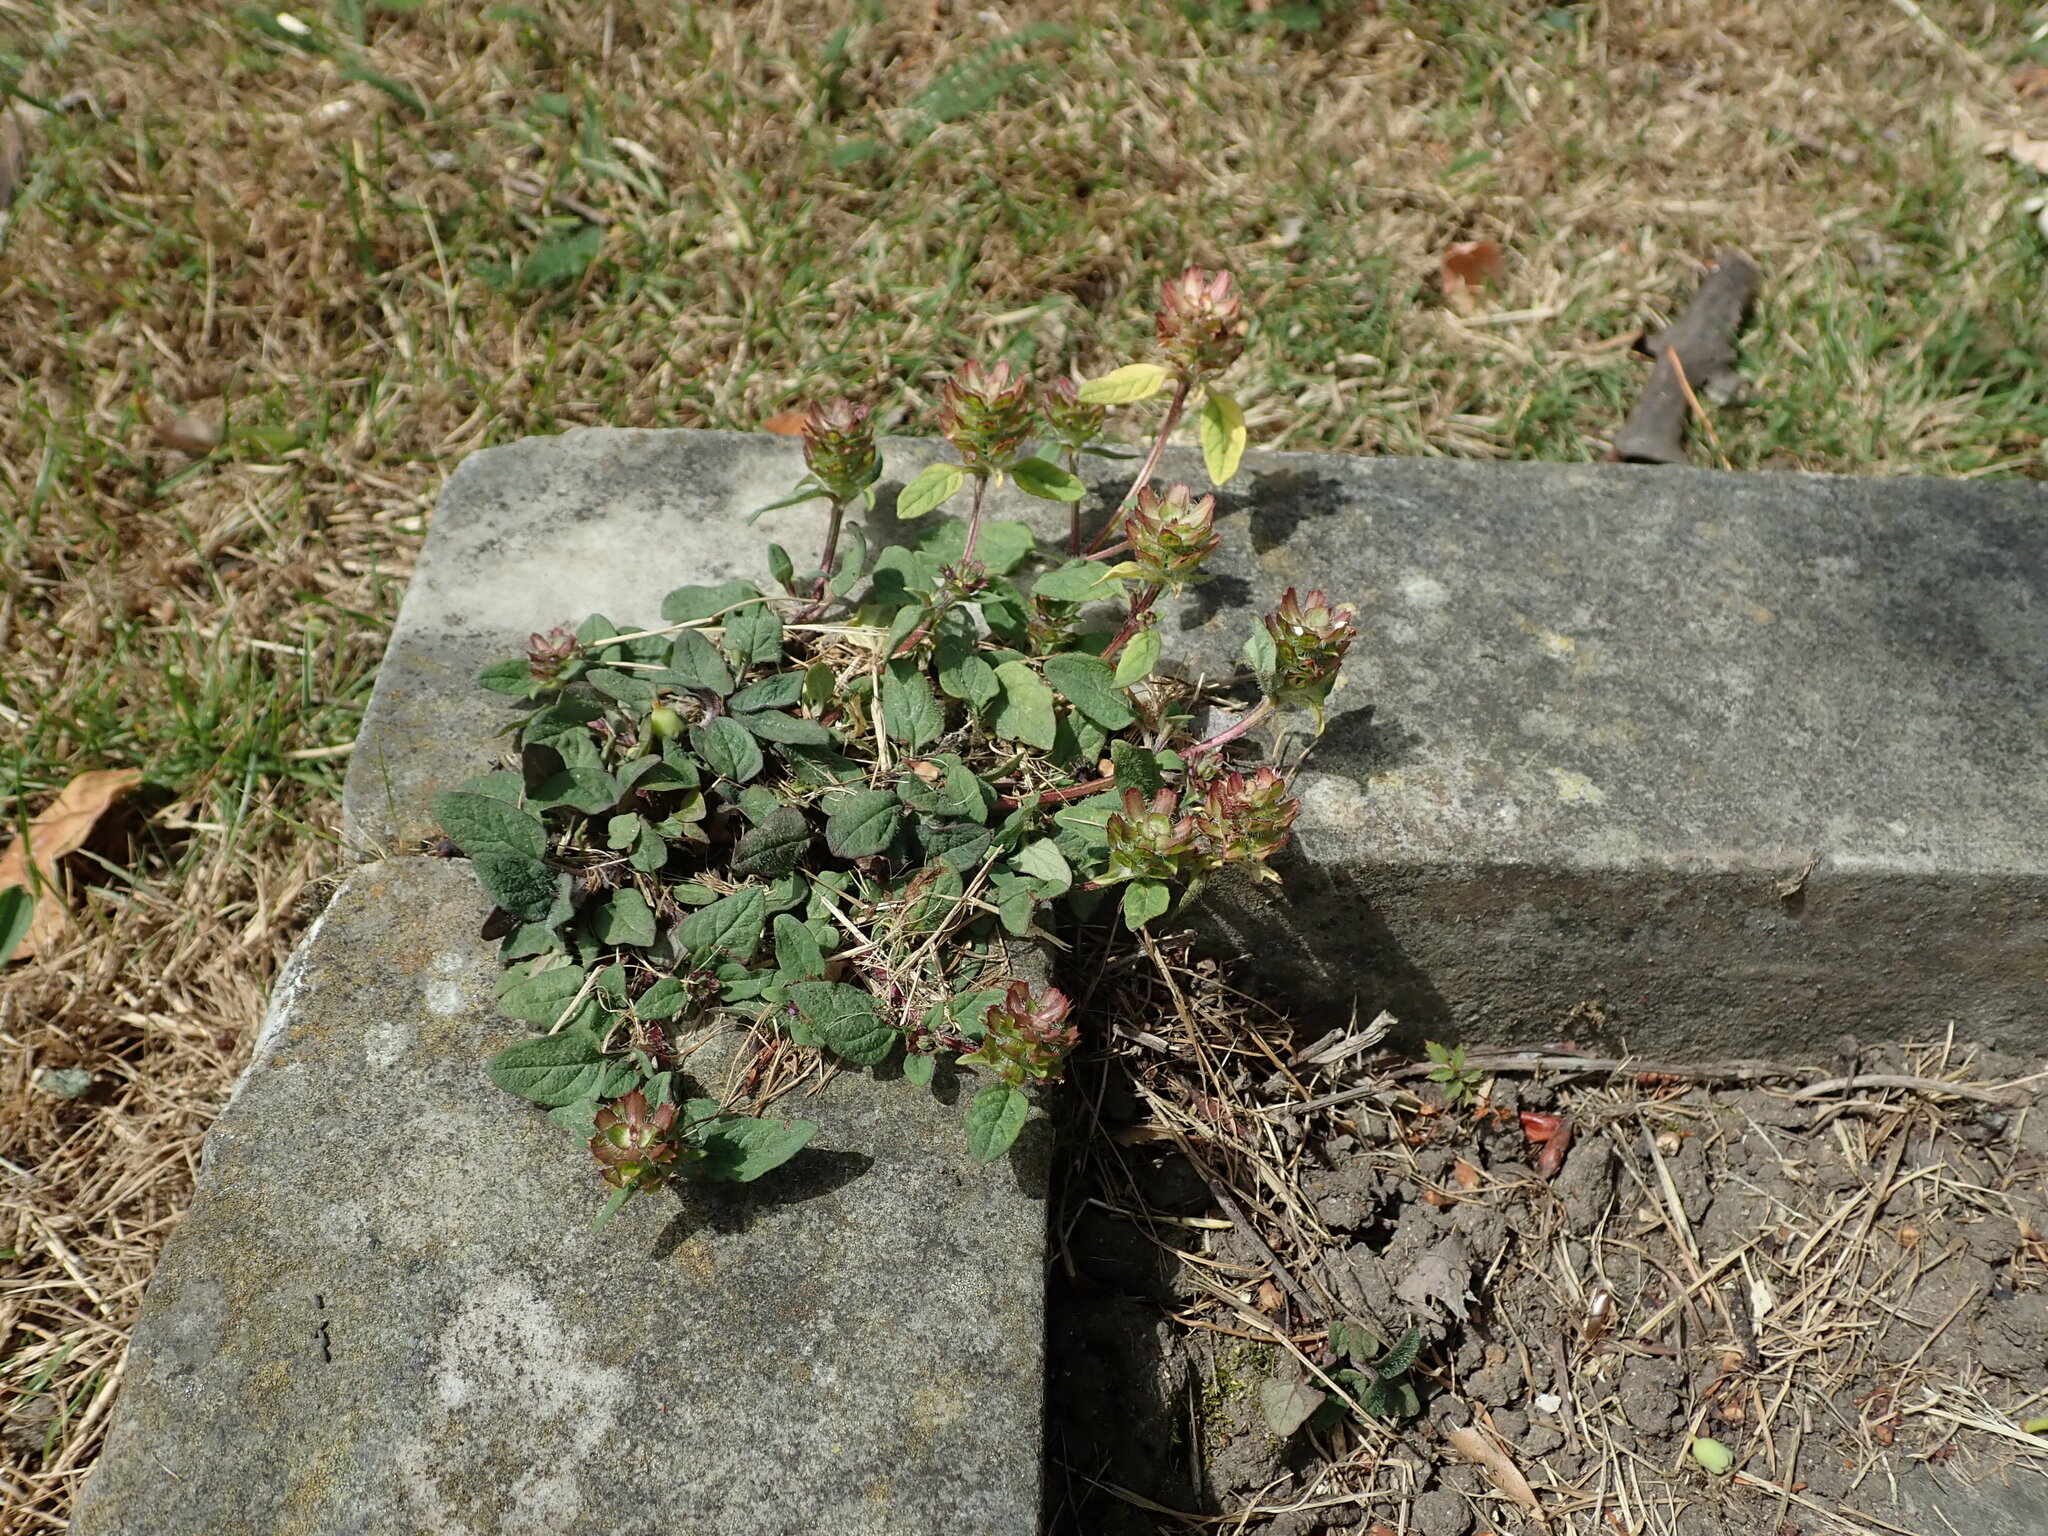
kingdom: Plantae
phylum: Tracheophyta
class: Magnoliopsida
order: Lamiales
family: Lamiaceae
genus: Prunella
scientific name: Prunella vulgaris
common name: Heal-all
